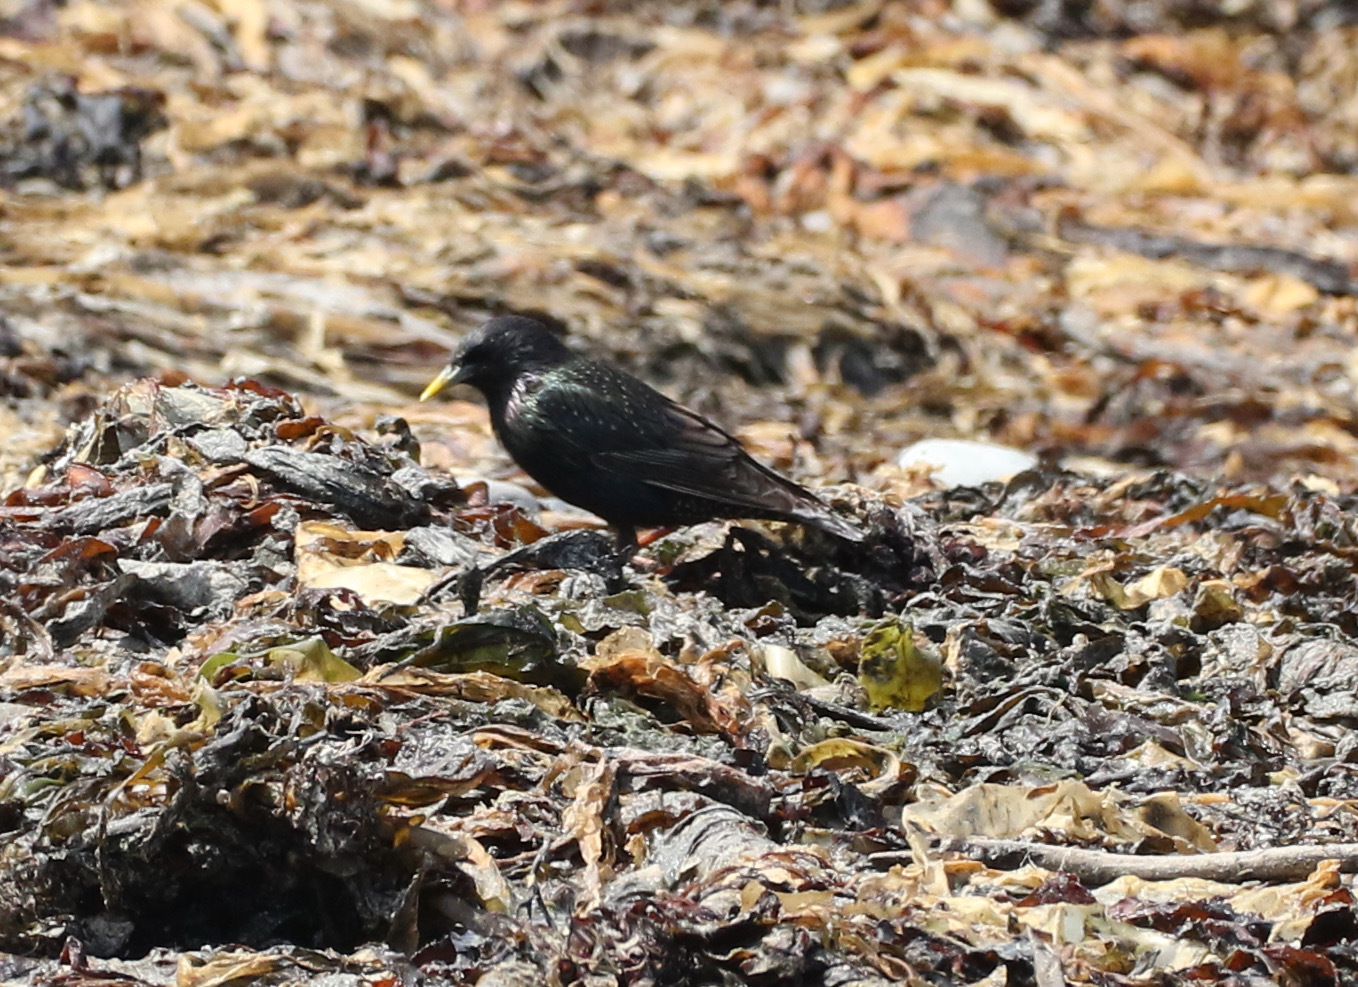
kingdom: Animalia
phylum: Chordata
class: Aves
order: Passeriformes
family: Sturnidae
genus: Sturnus
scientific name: Sturnus vulgaris
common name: Common starling
